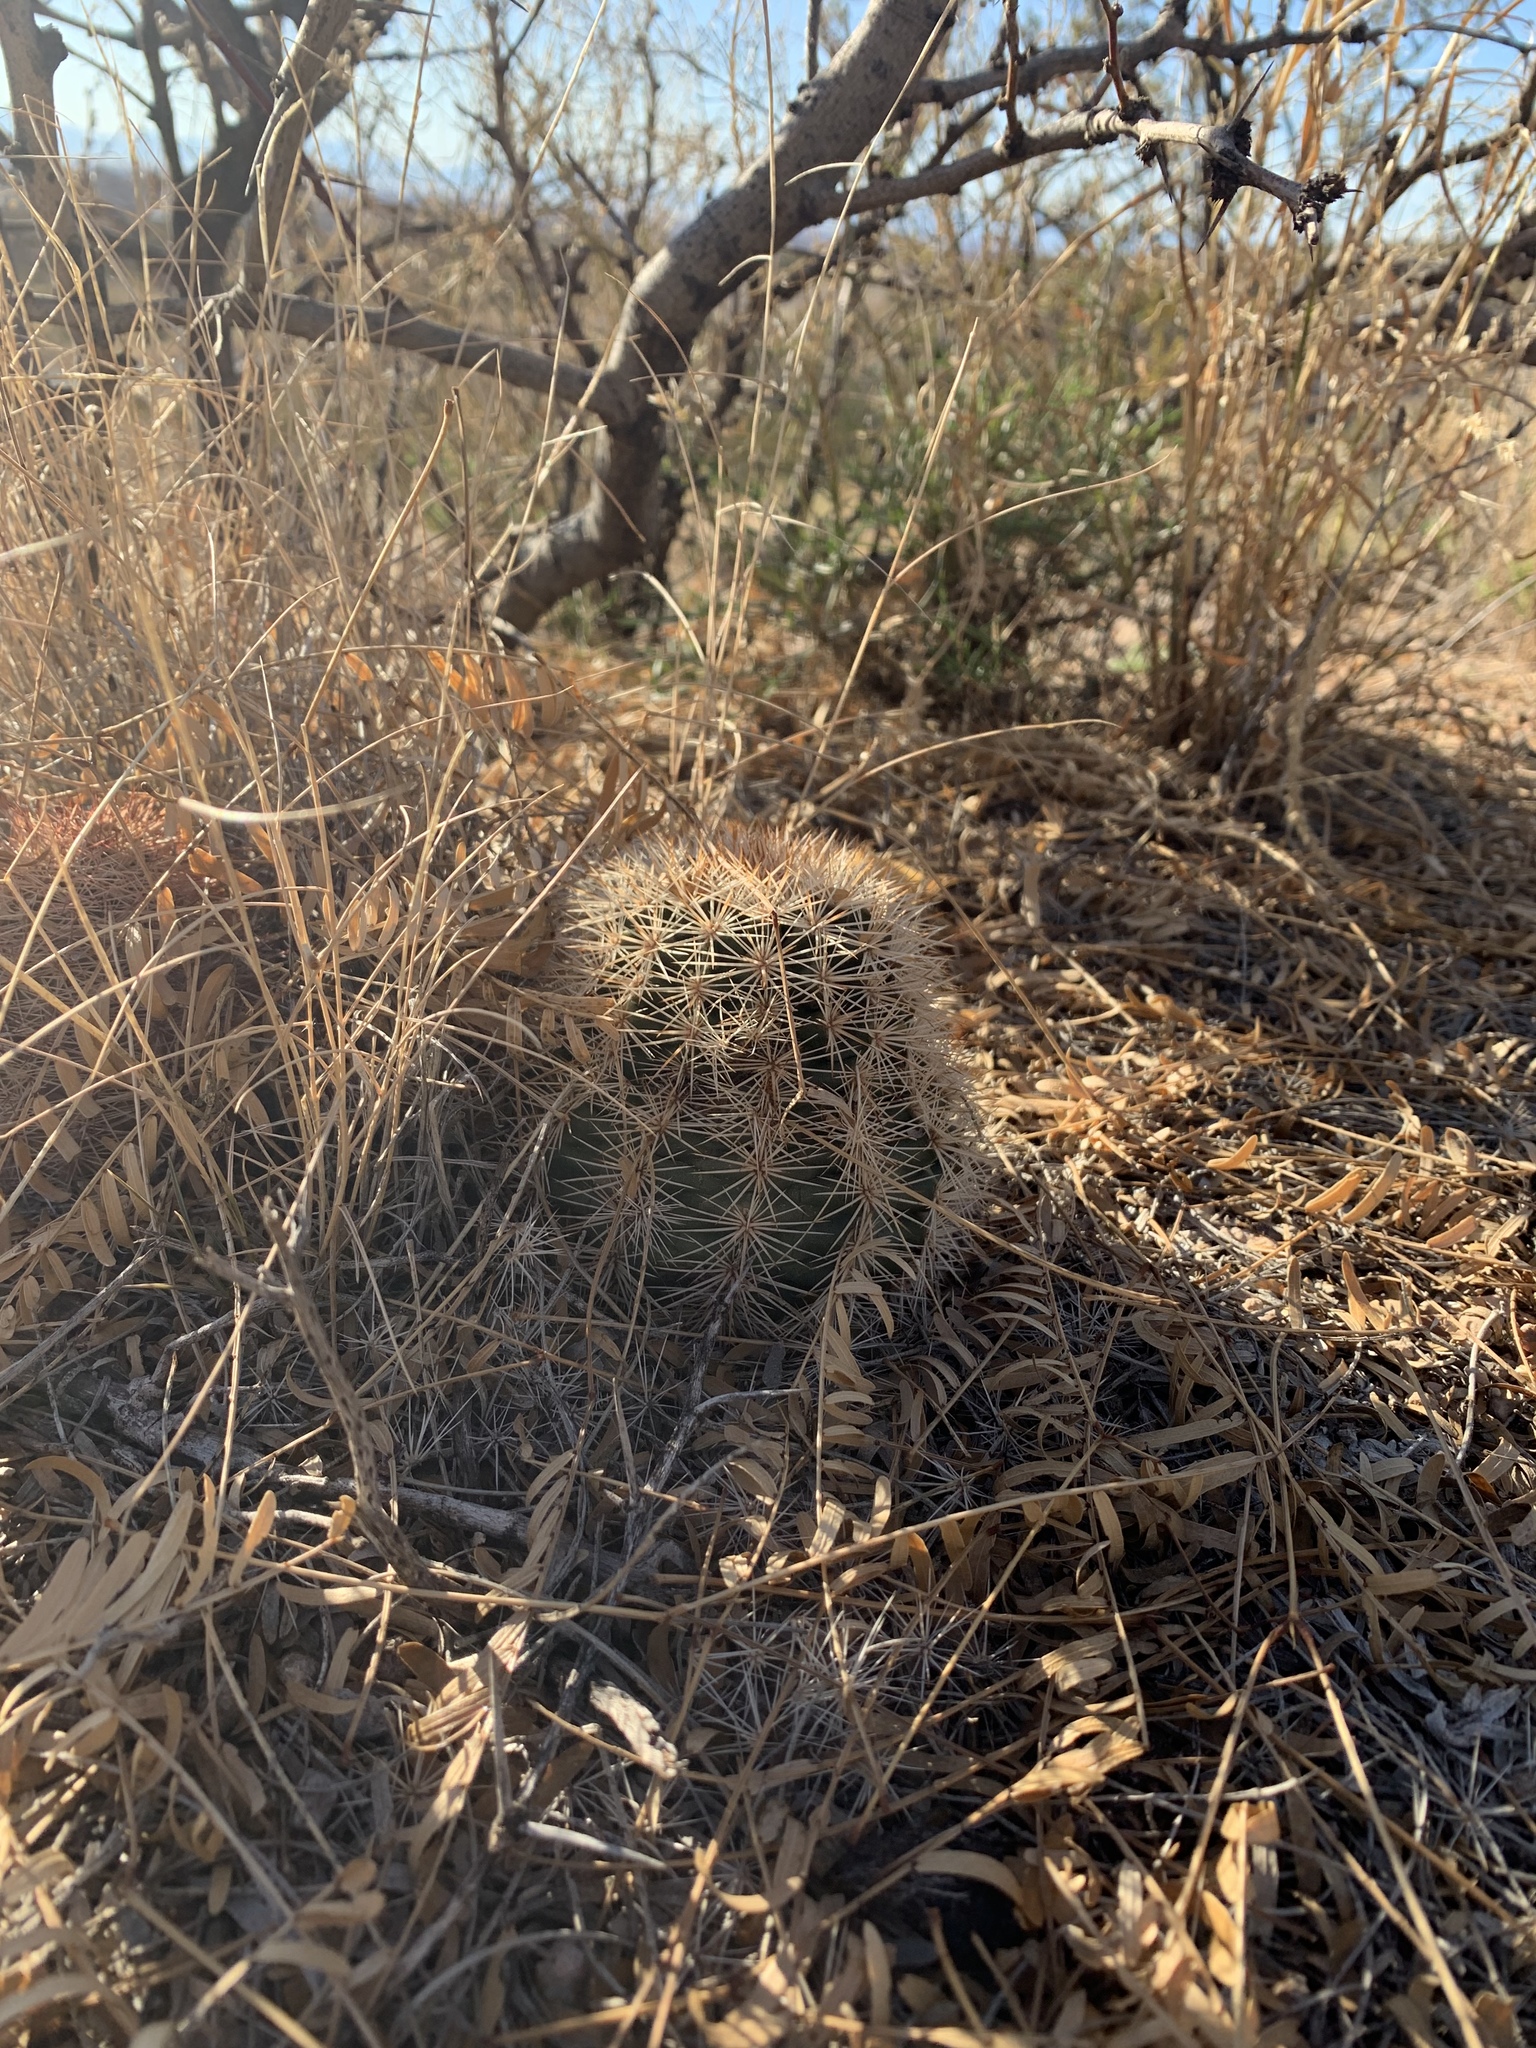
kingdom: Plantae
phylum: Tracheophyta
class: Magnoliopsida
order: Caryophyllales
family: Cactaceae
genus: Echinocereus
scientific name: Echinocereus dasyacanthus
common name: Spiny hedgehog cactus
